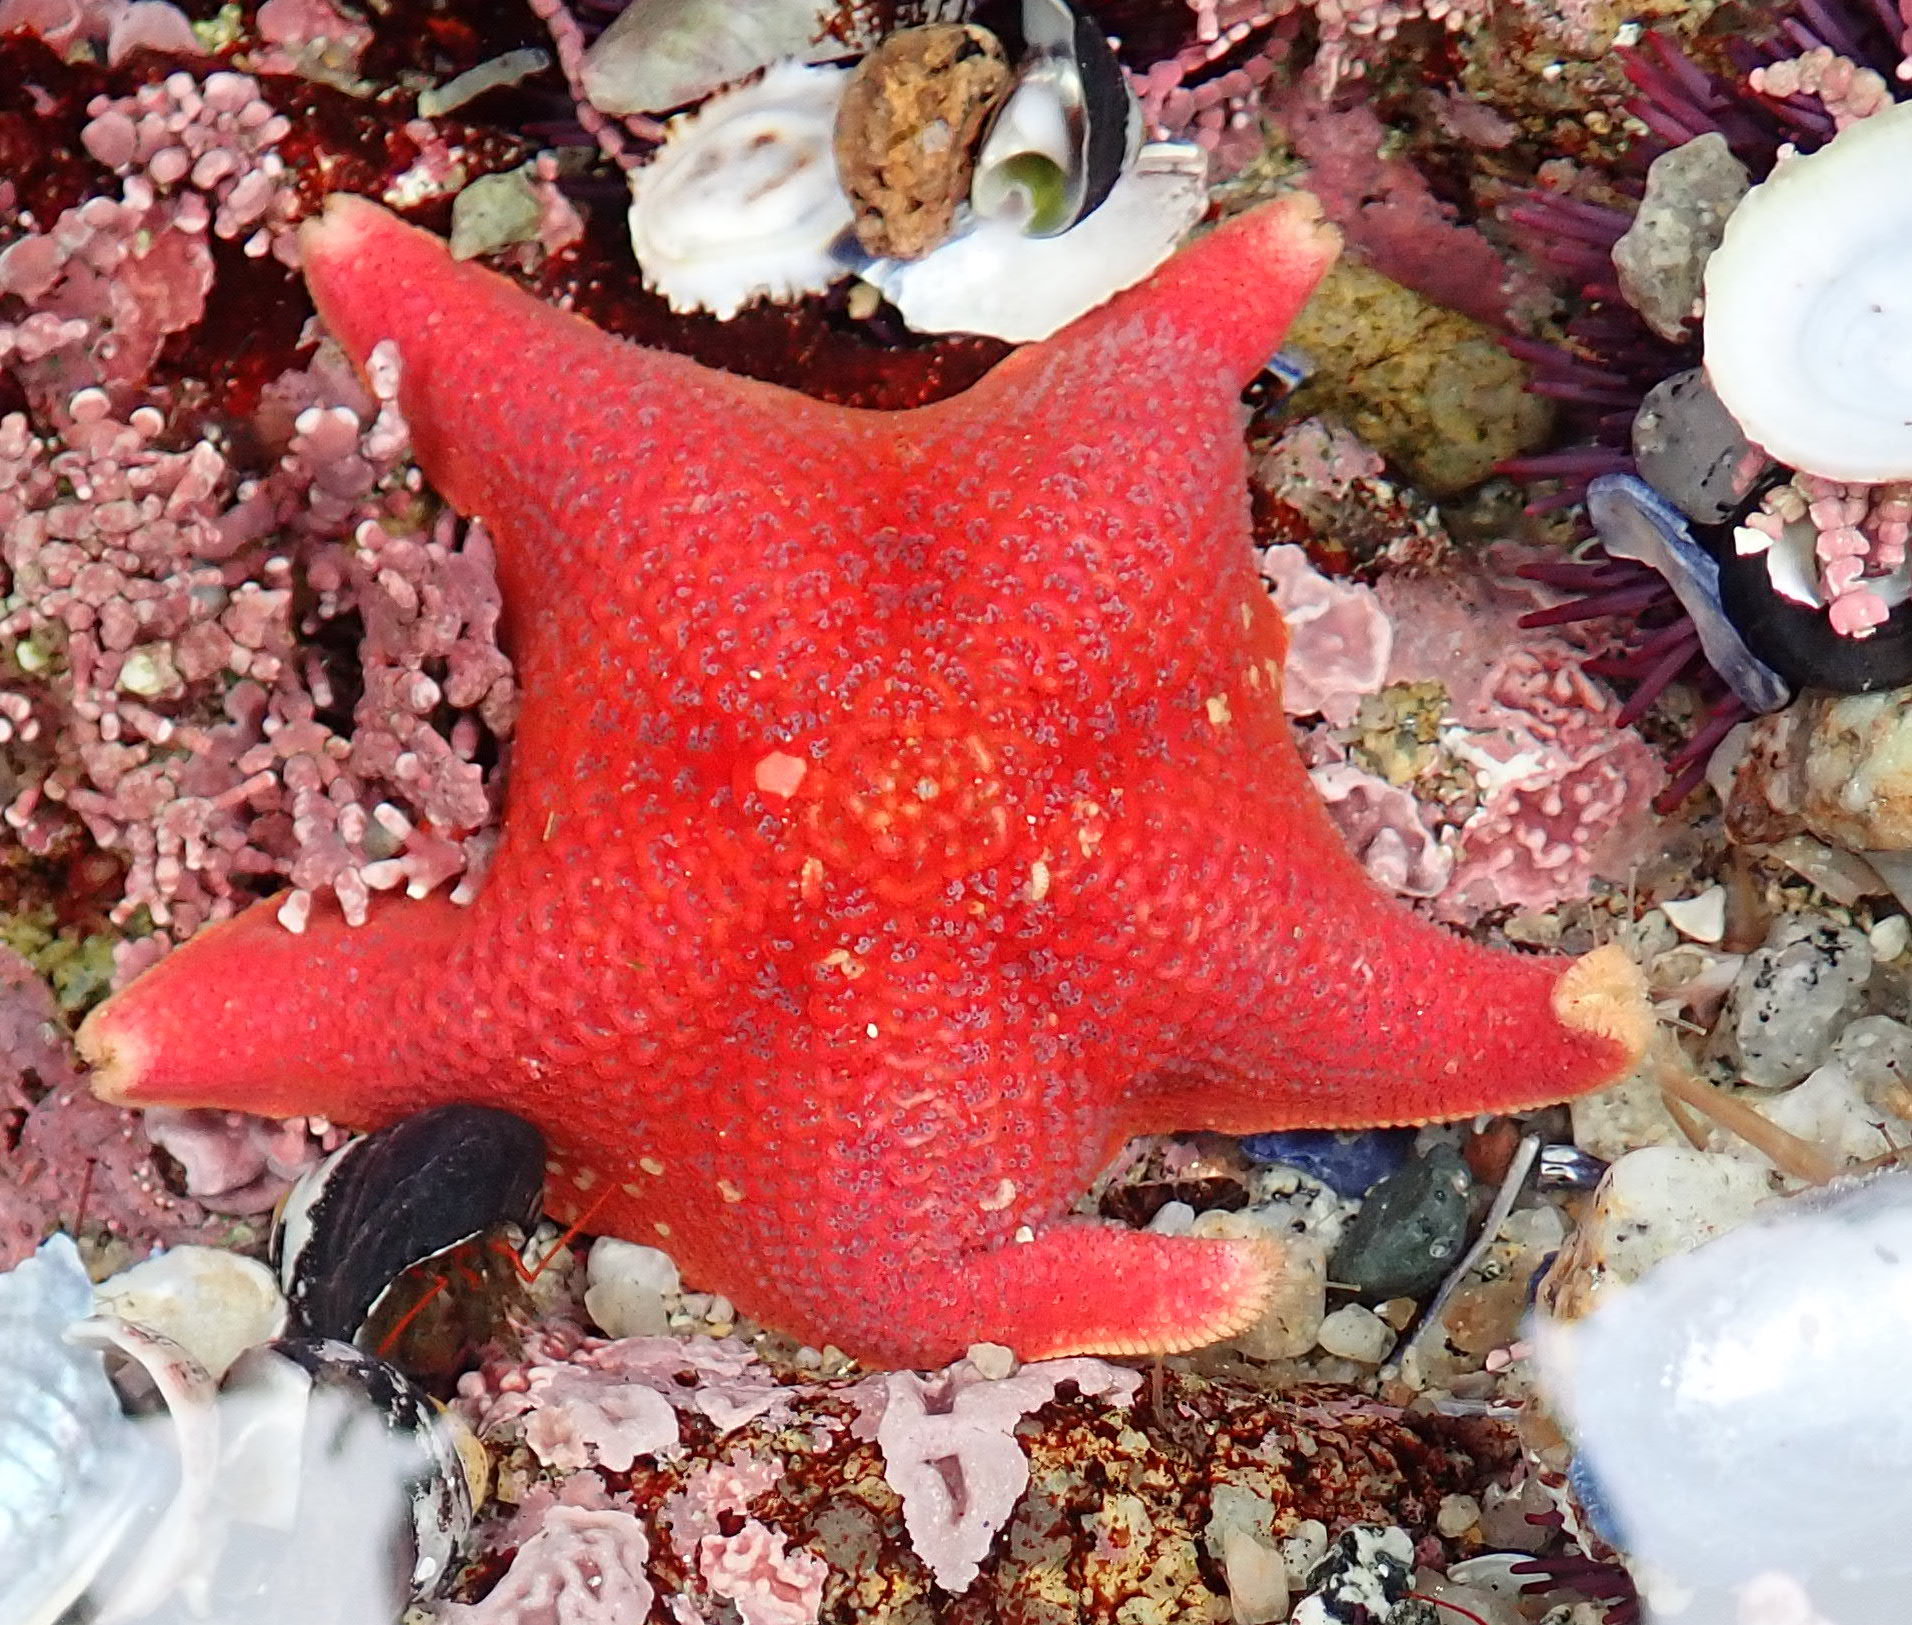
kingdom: Animalia
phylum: Echinodermata
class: Asteroidea
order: Valvatida
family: Asterinidae
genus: Patiria
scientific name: Patiria miniata
